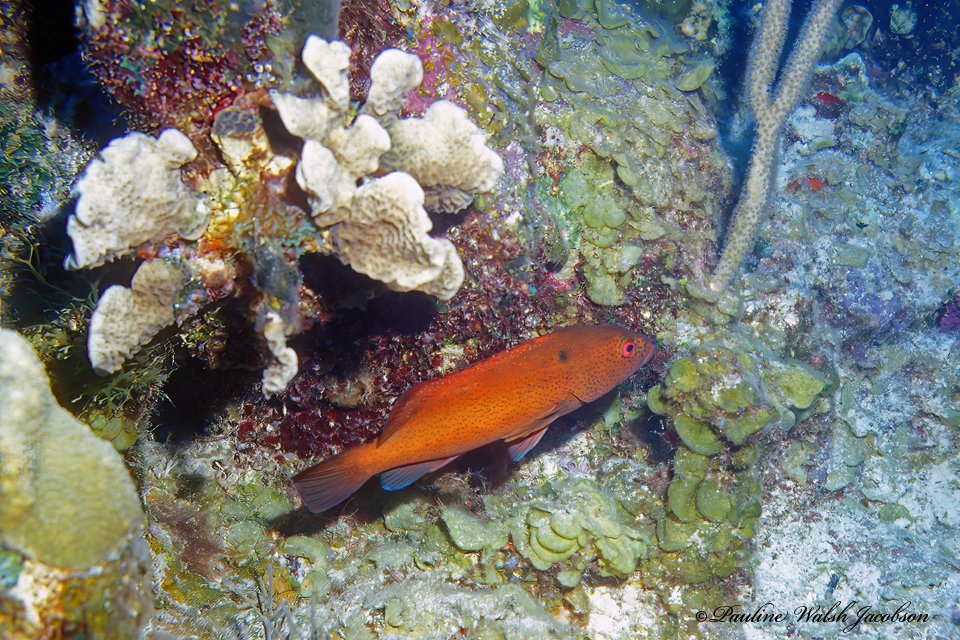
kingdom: Animalia
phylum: Chordata
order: Perciformes
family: Serranidae
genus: Cephalopholis
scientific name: Cephalopholis fulva
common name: Butterfish
